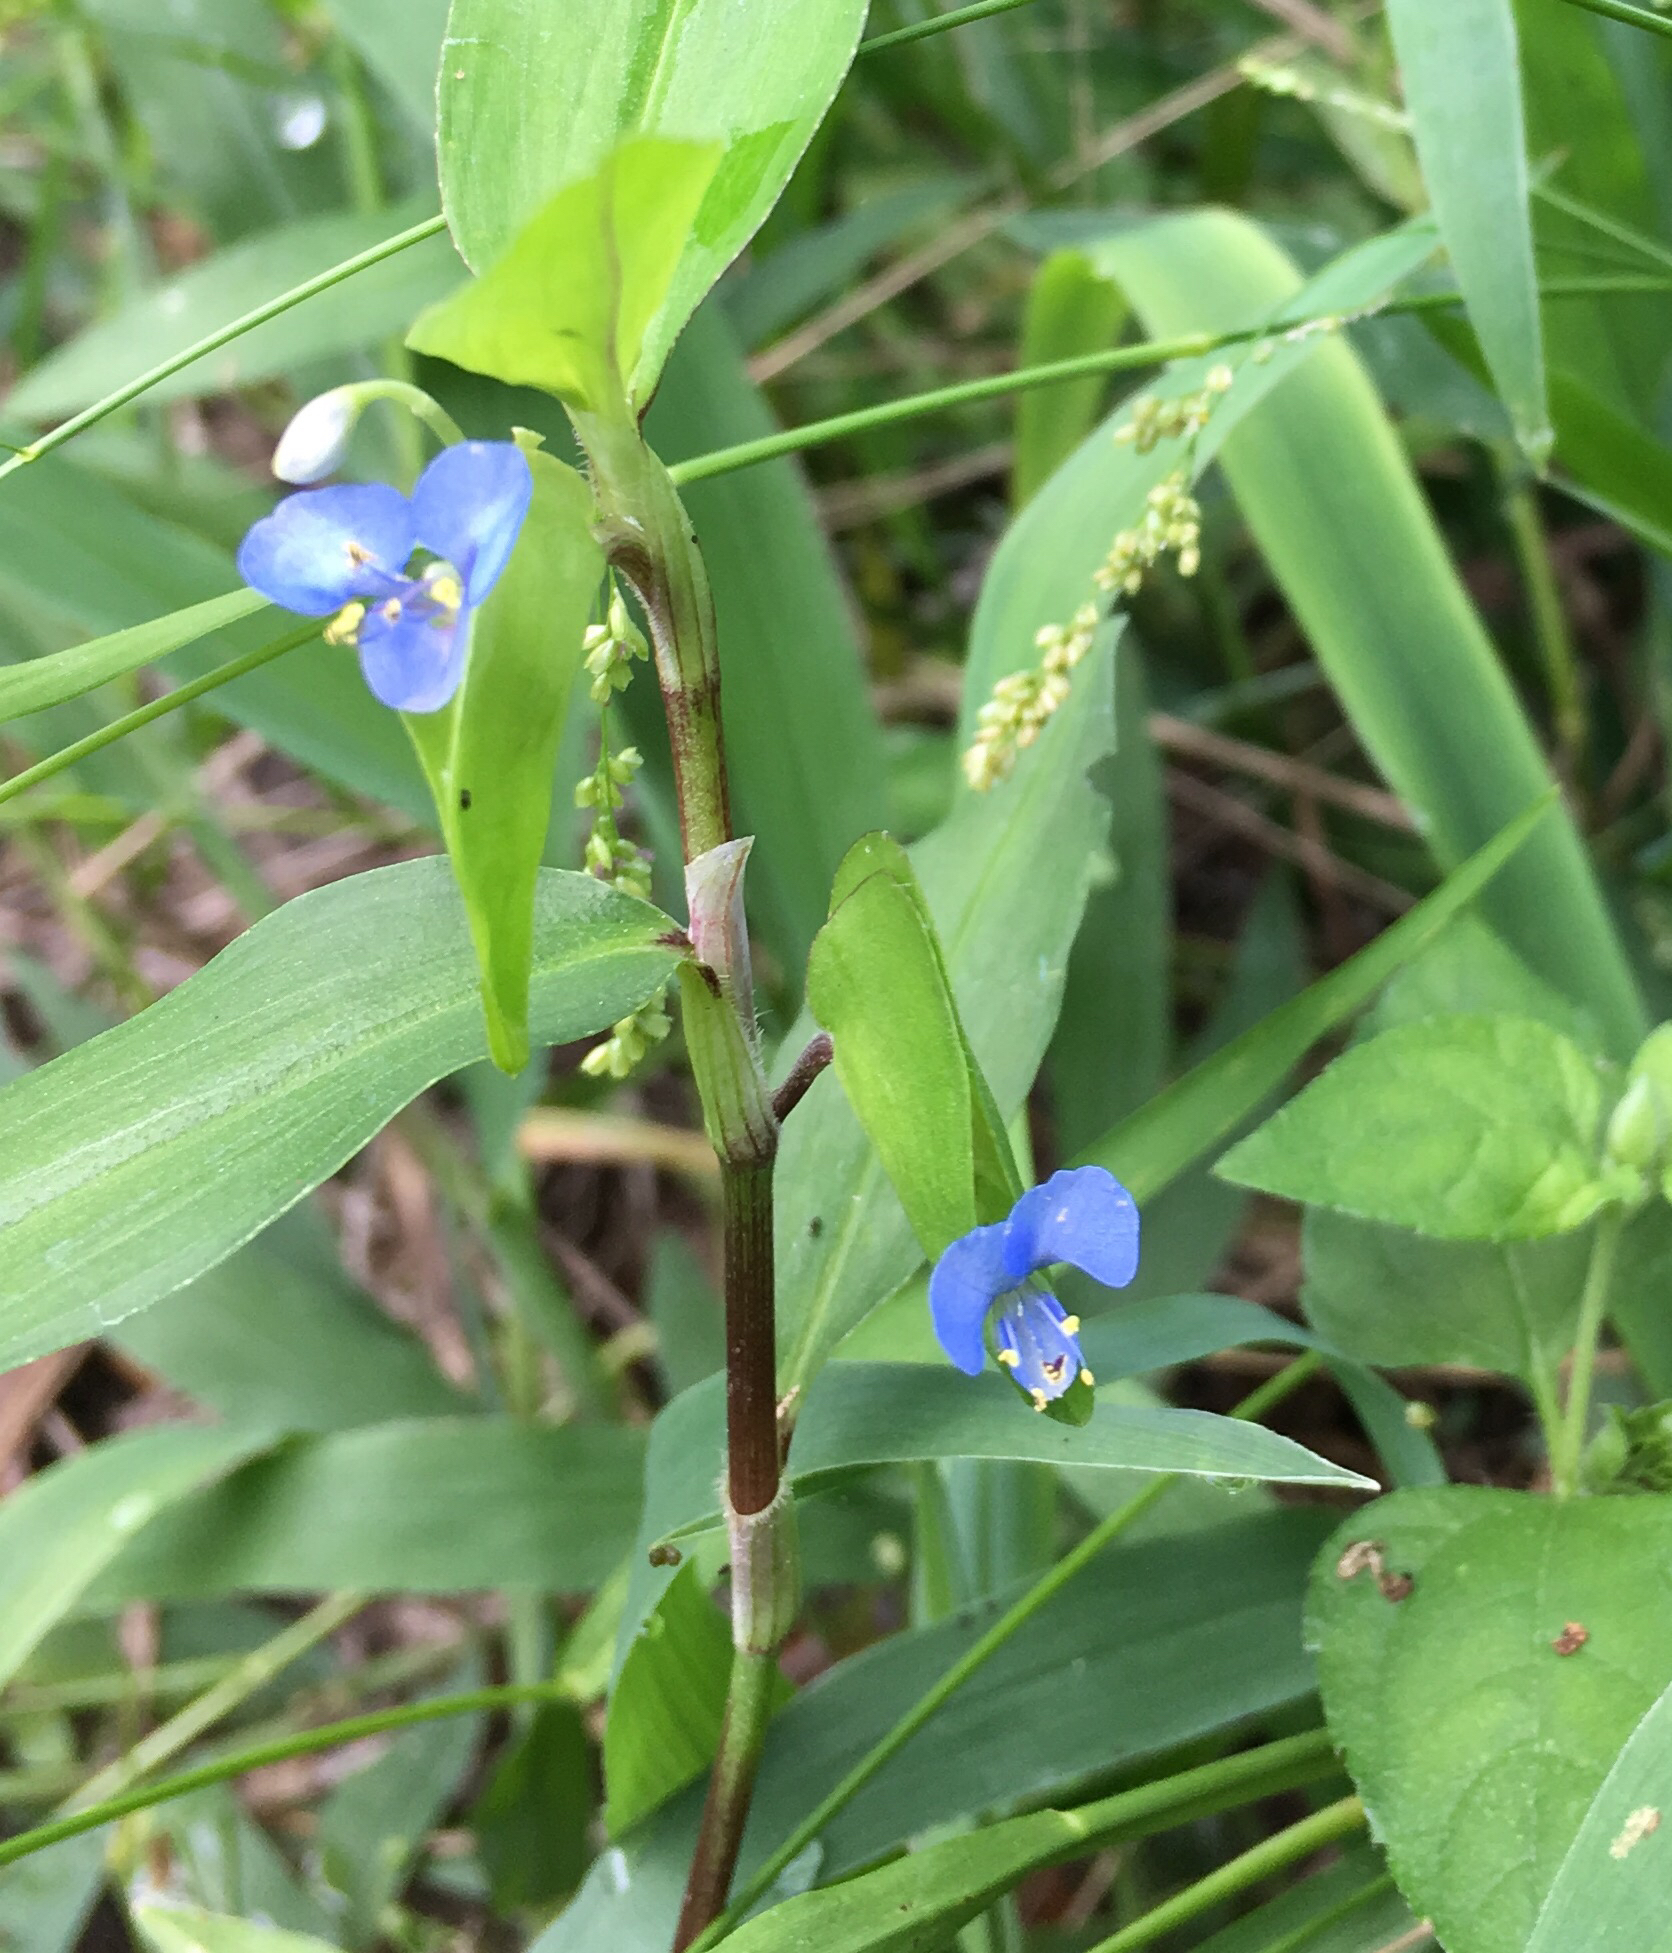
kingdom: Plantae
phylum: Tracheophyta
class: Liliopsida
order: Commelinales
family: Commelinaceae
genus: Commelina
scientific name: Commelina diffusa
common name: Climbing dayflower
